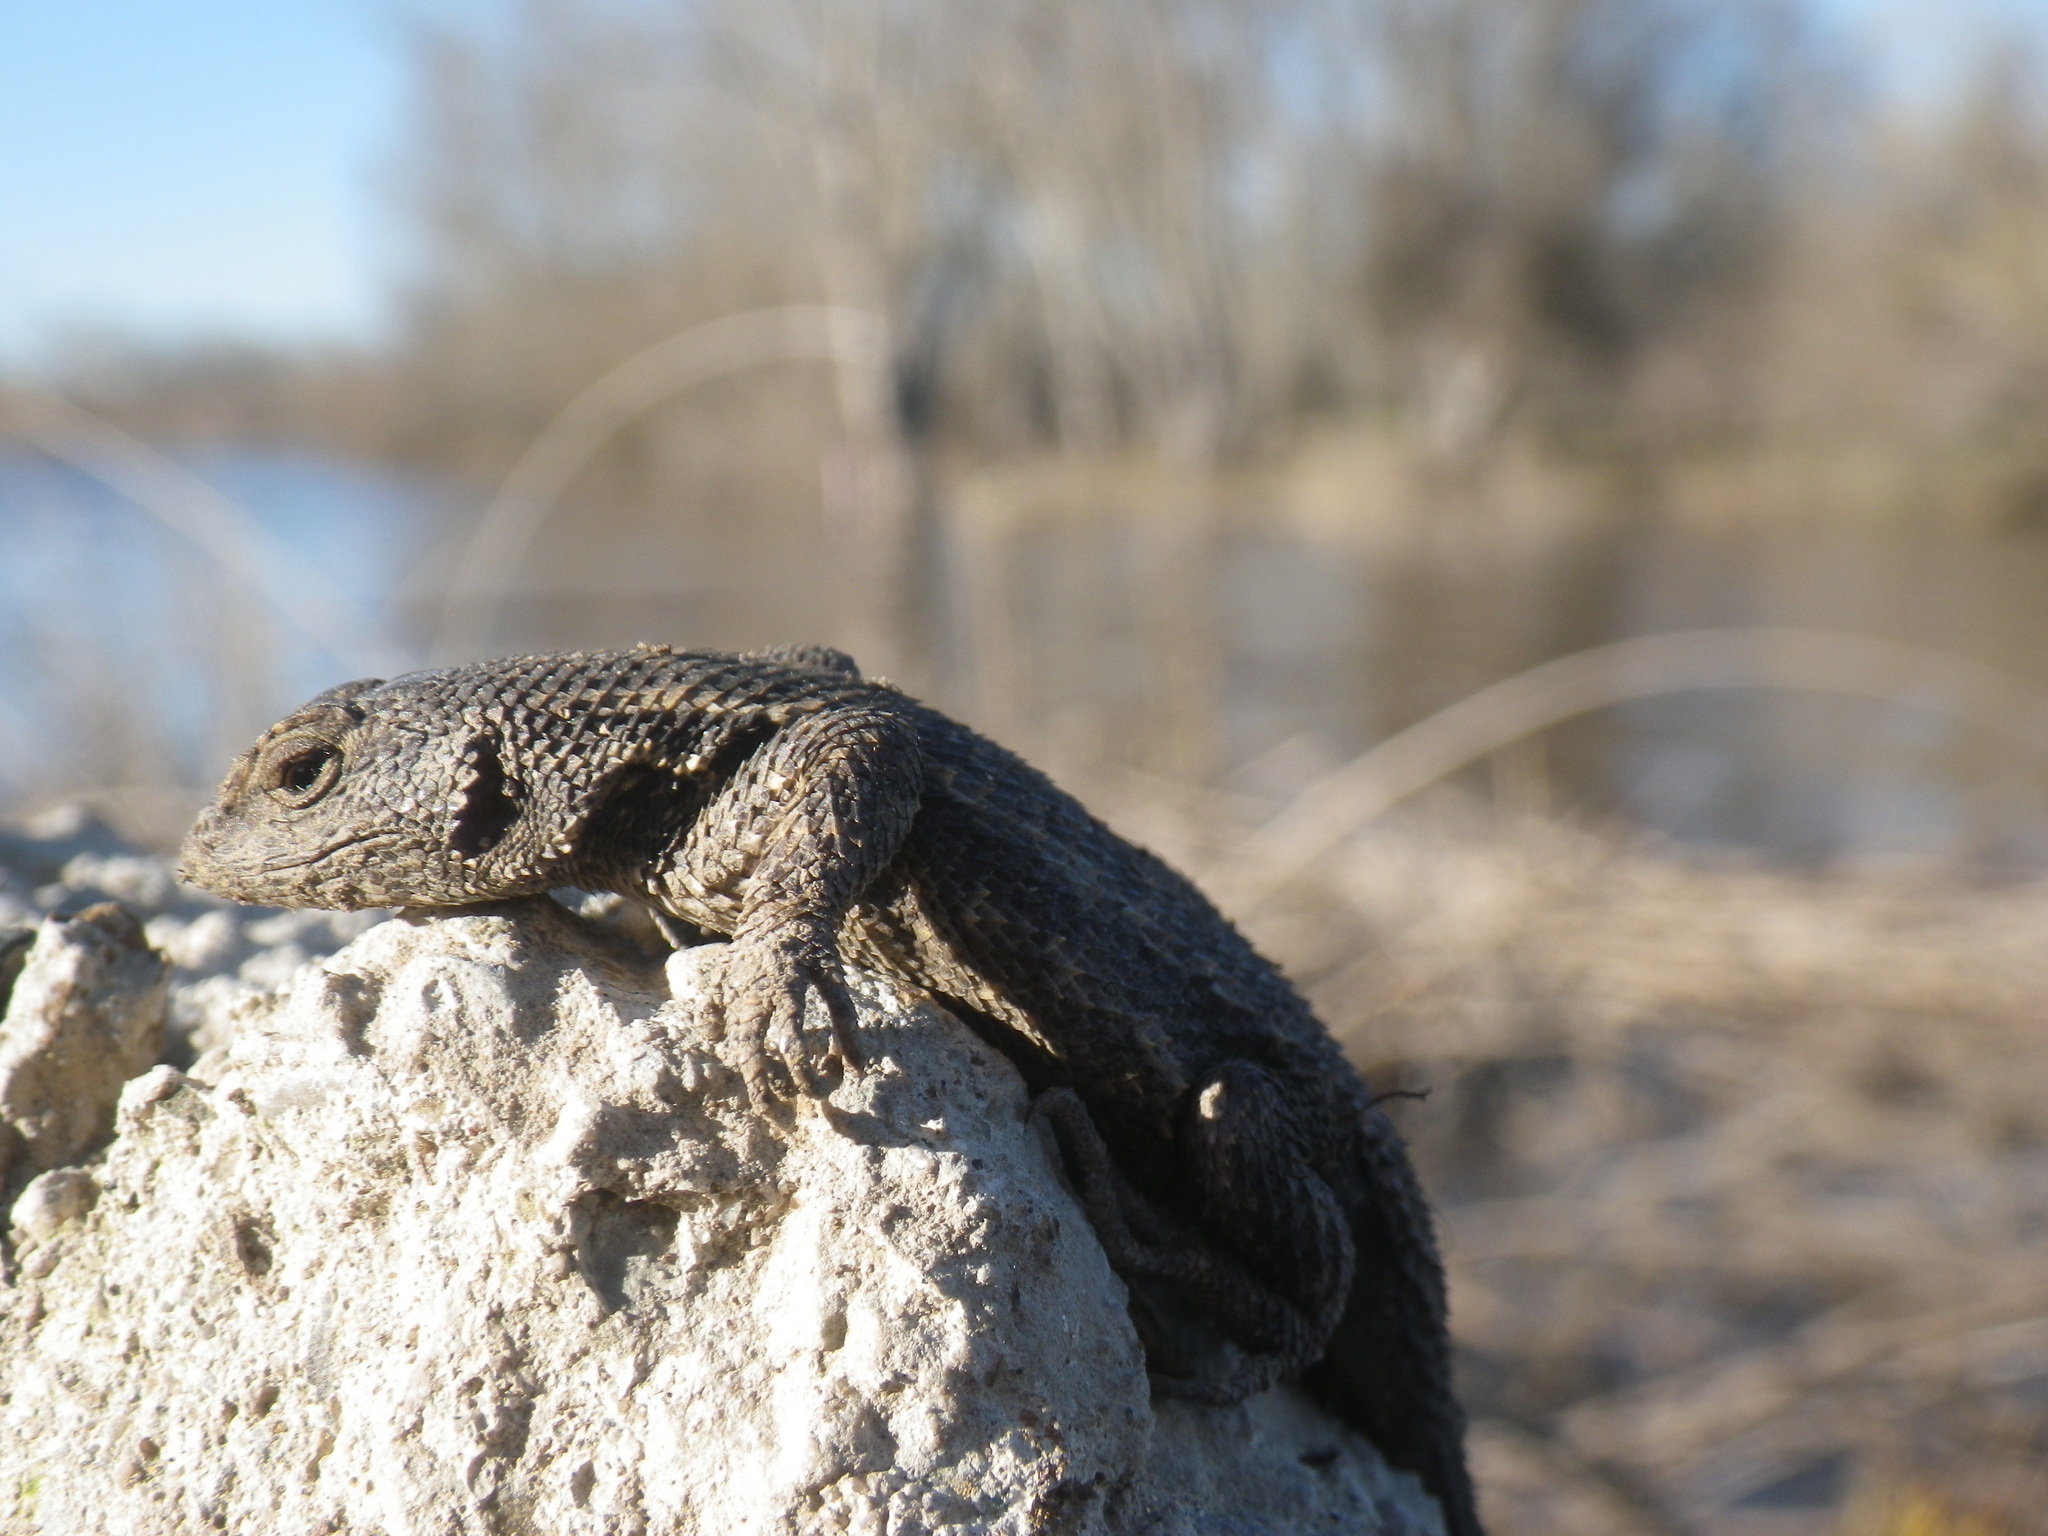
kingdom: Animalia
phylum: Chordata
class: Squamata
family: Phrynosomatidae
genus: Sceloporus
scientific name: Sceloporus occidentalis
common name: Western fence lizard
